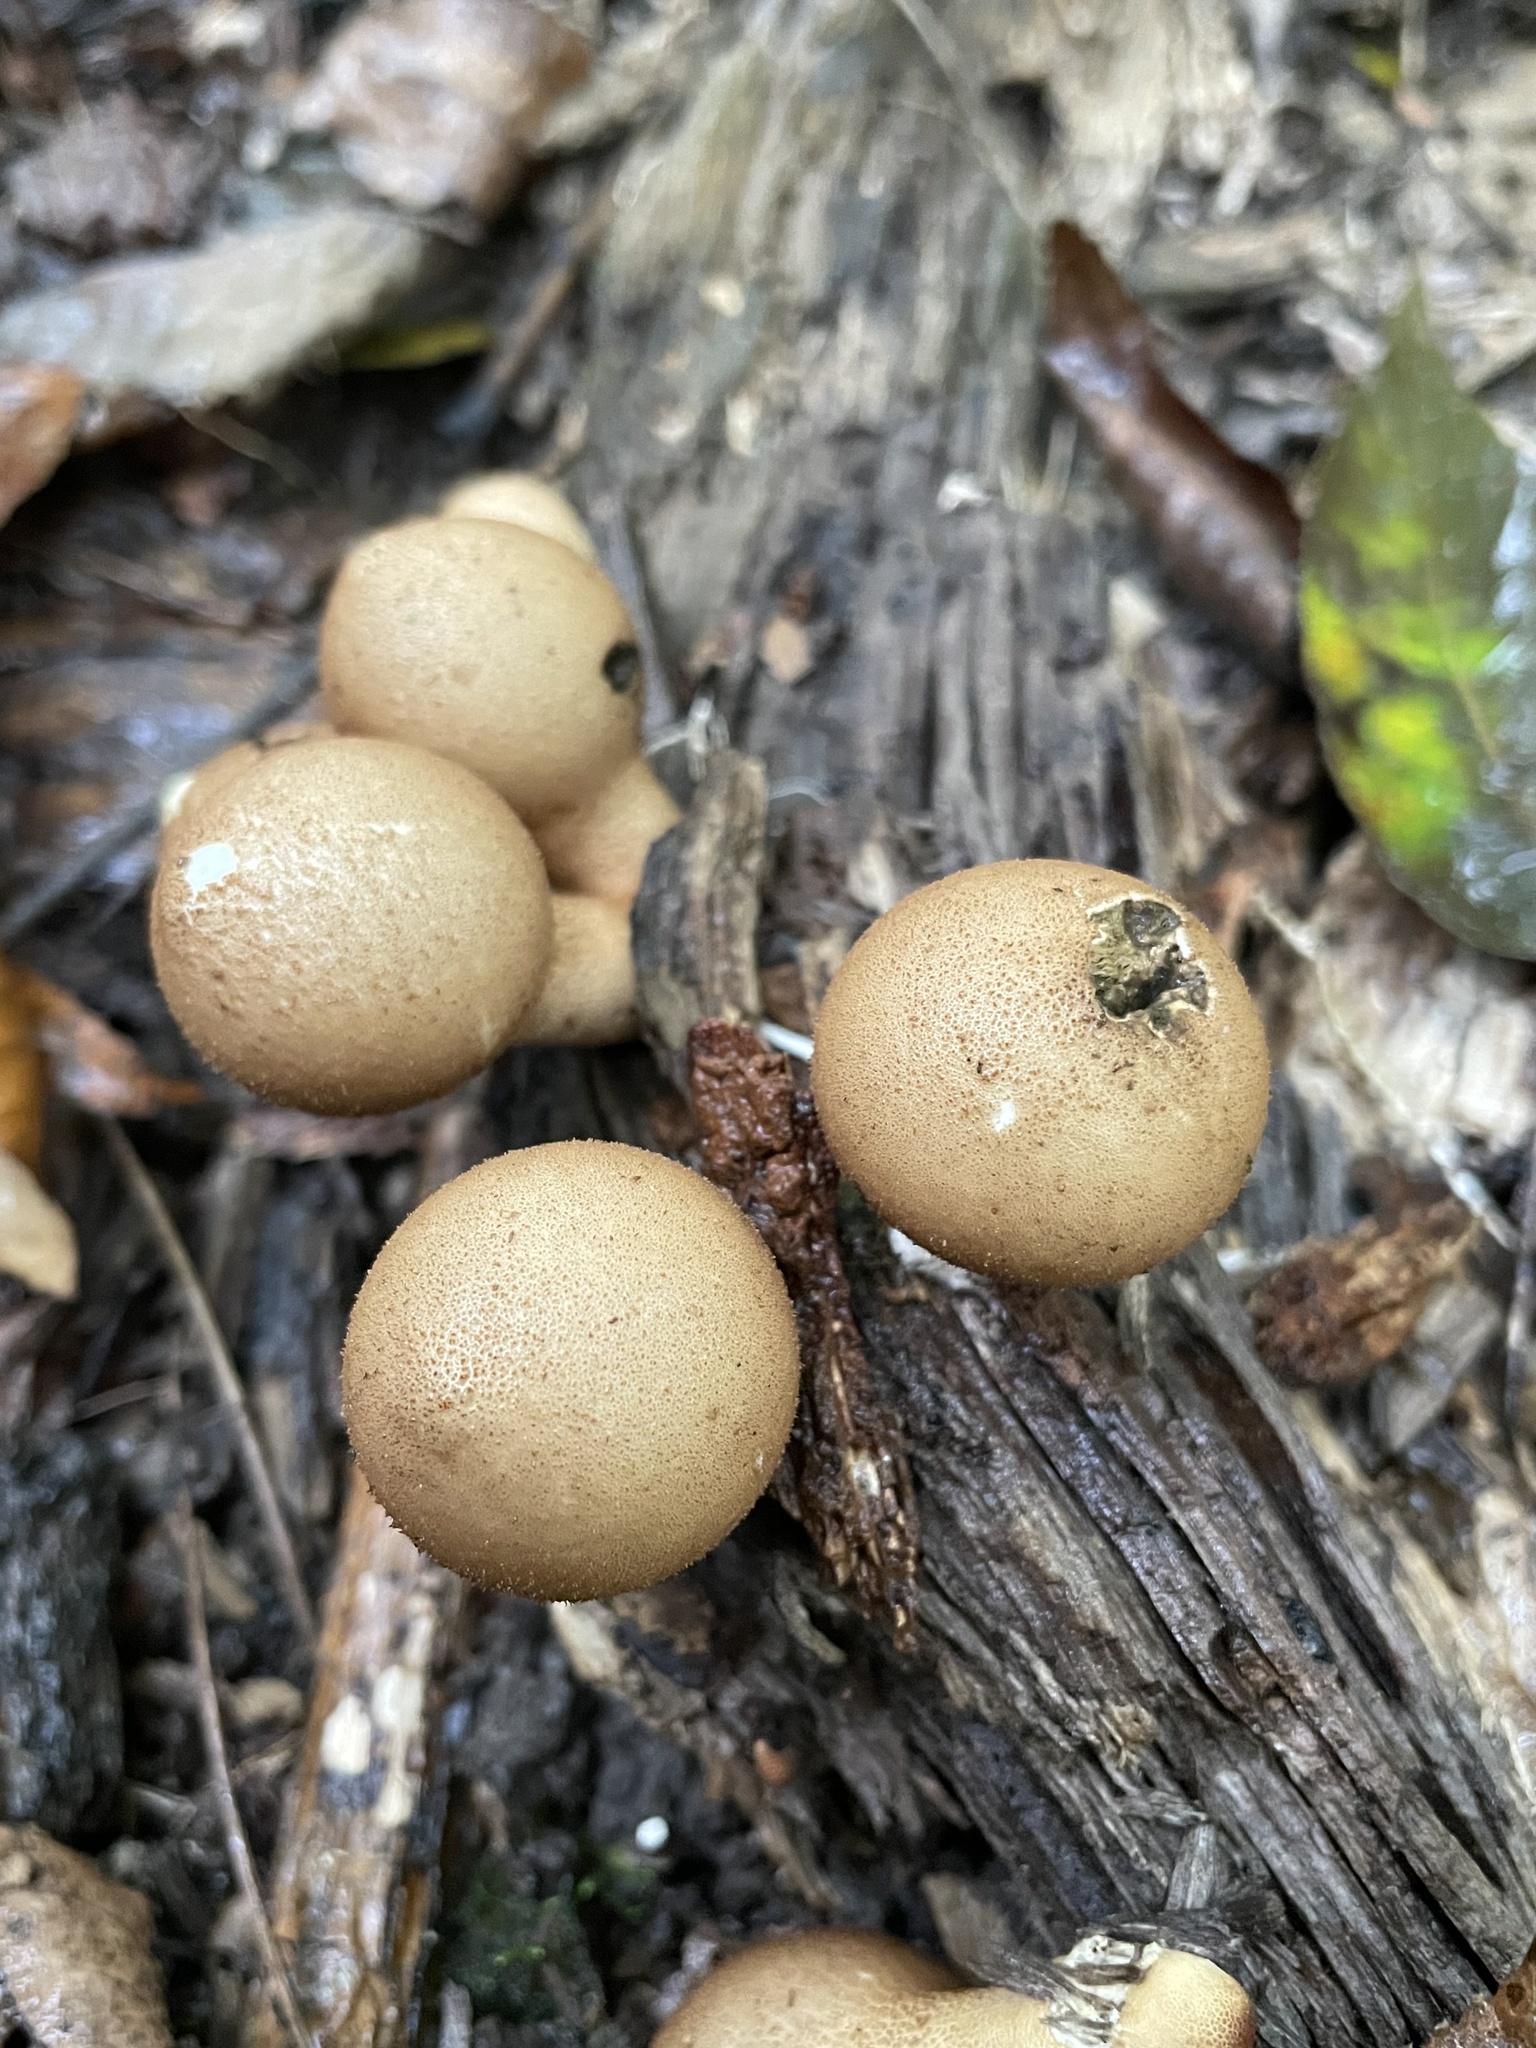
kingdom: Fungi
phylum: Basidiomycota
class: Agaricomycetes
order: Agaricales
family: Lycoperdaceae
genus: Apioperdon
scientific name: Apioperdon pyriforme
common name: Pear-shaped puffball
